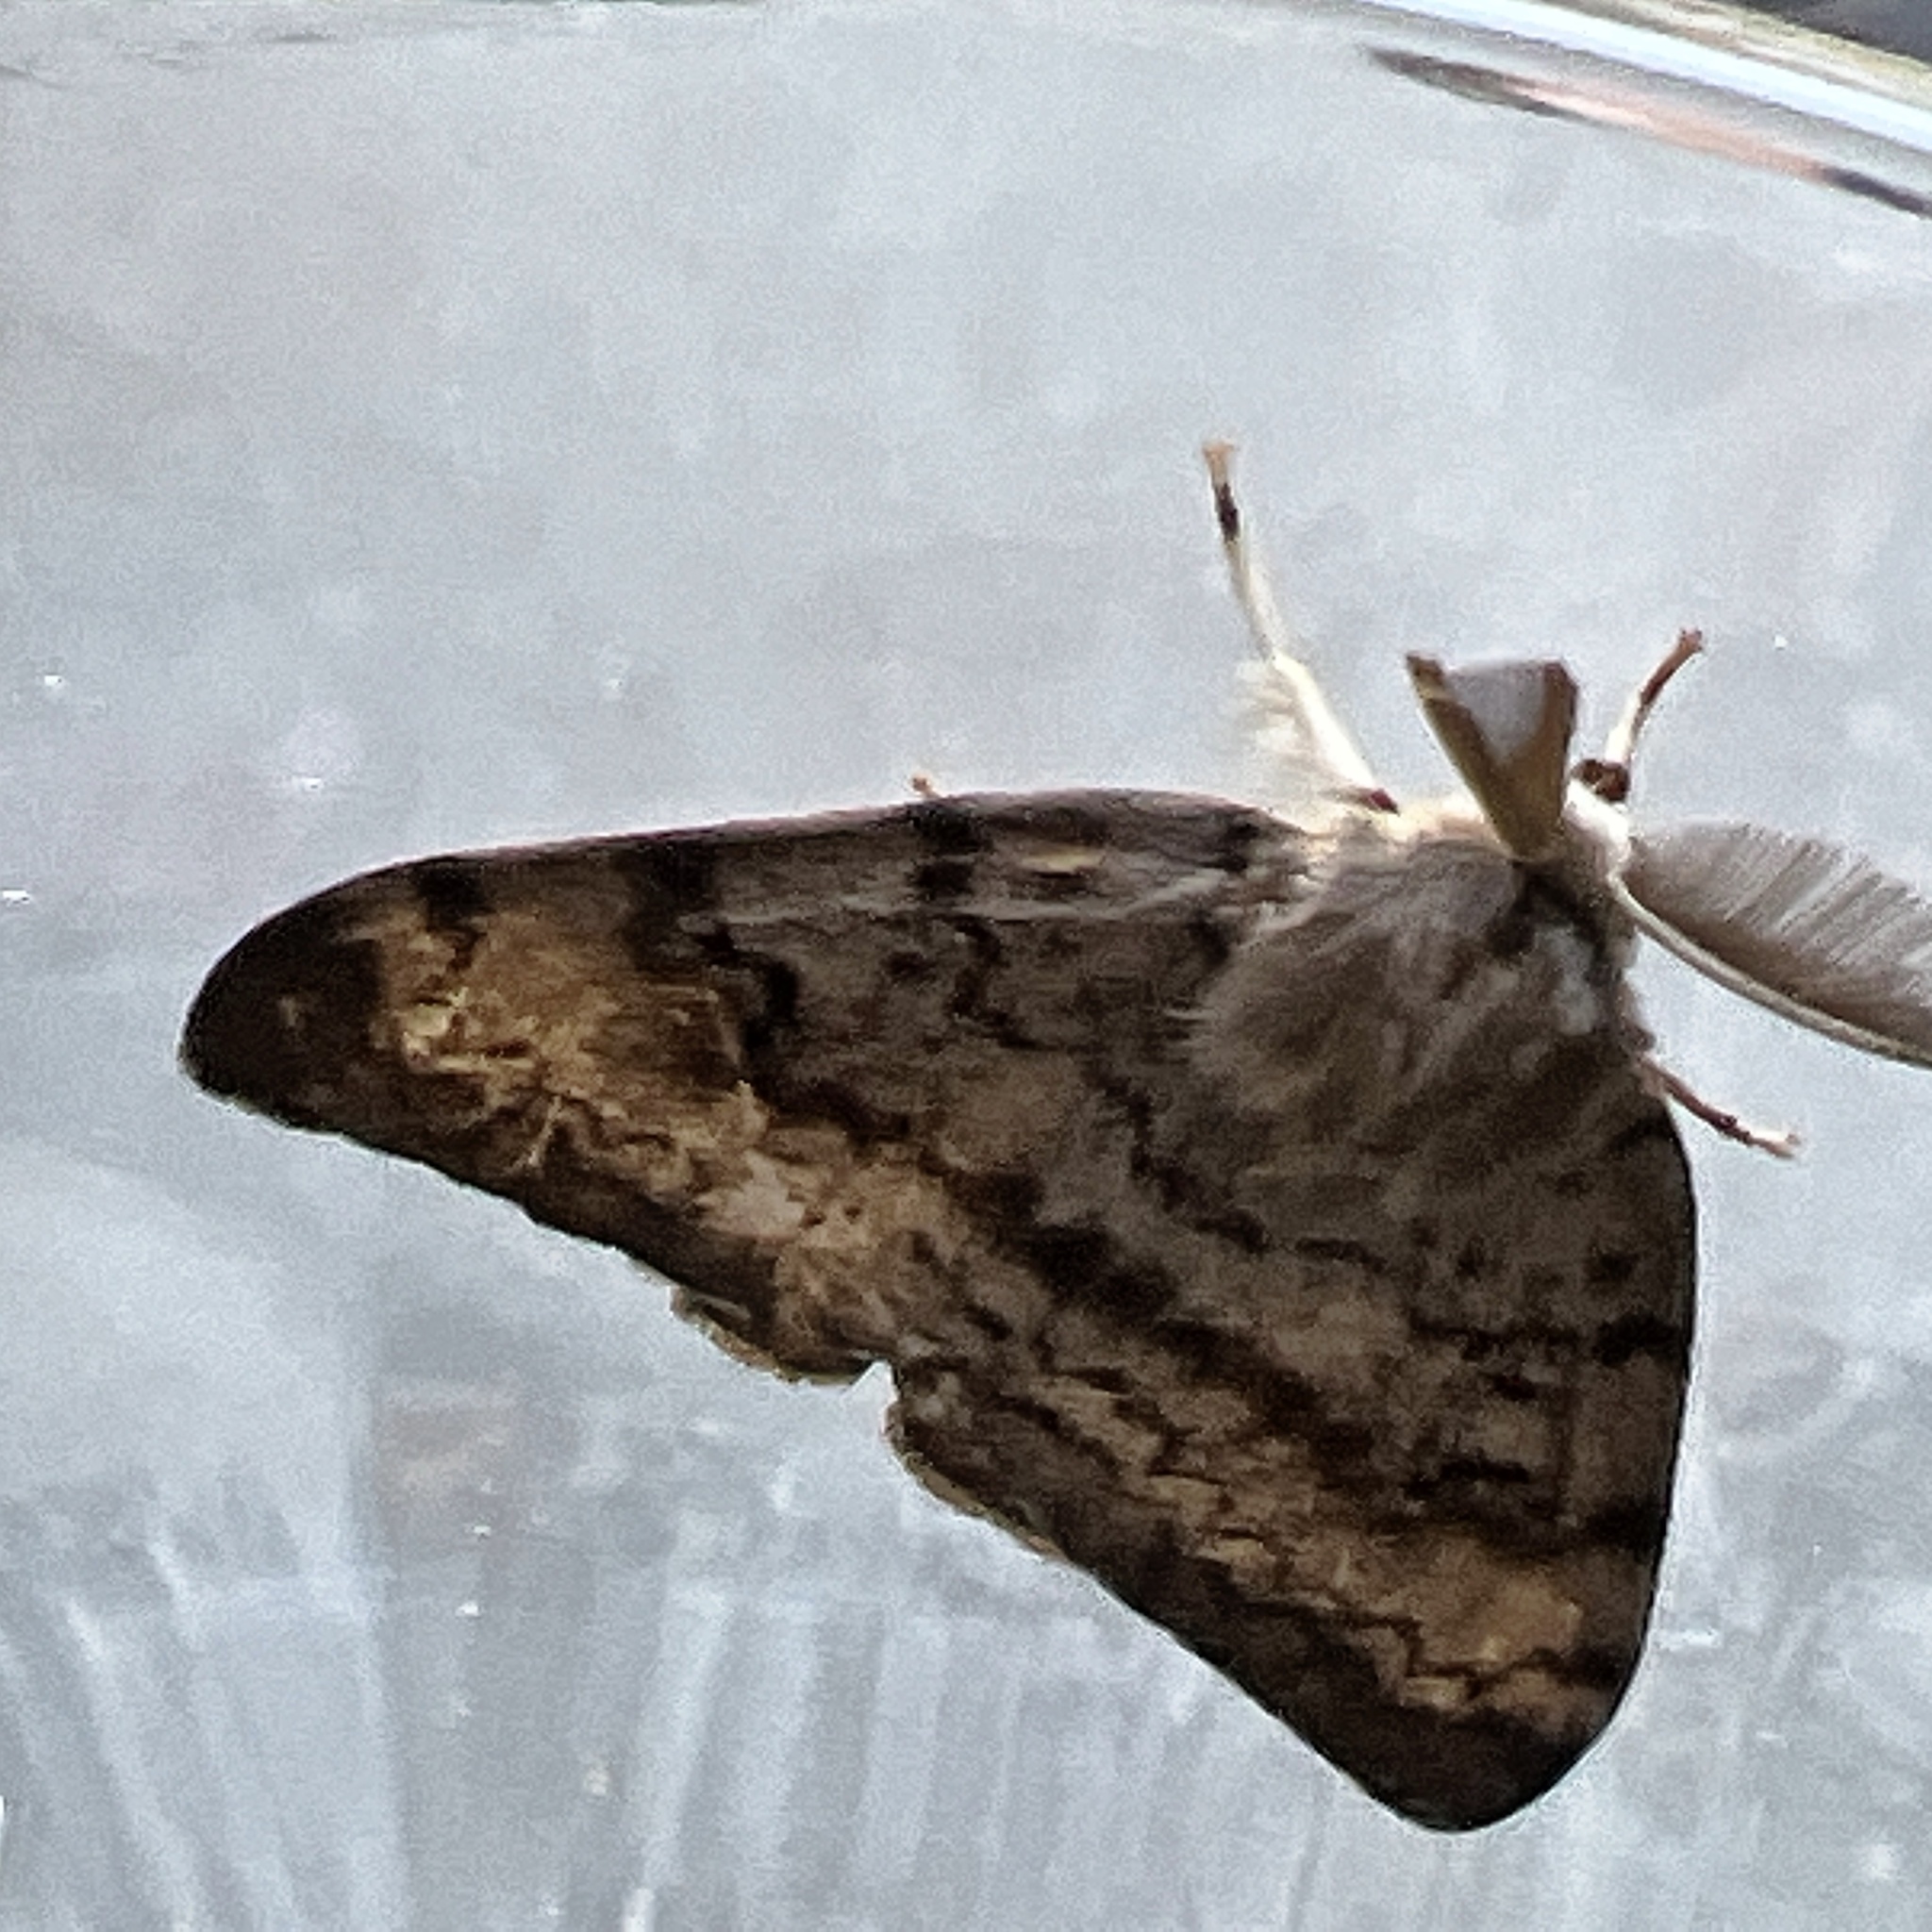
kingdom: Animalia
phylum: Arthropoda
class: Insecta
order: Lepidoptera
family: Erebidae
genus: Lymantria
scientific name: Lymantria dispar
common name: Gypsy moth
